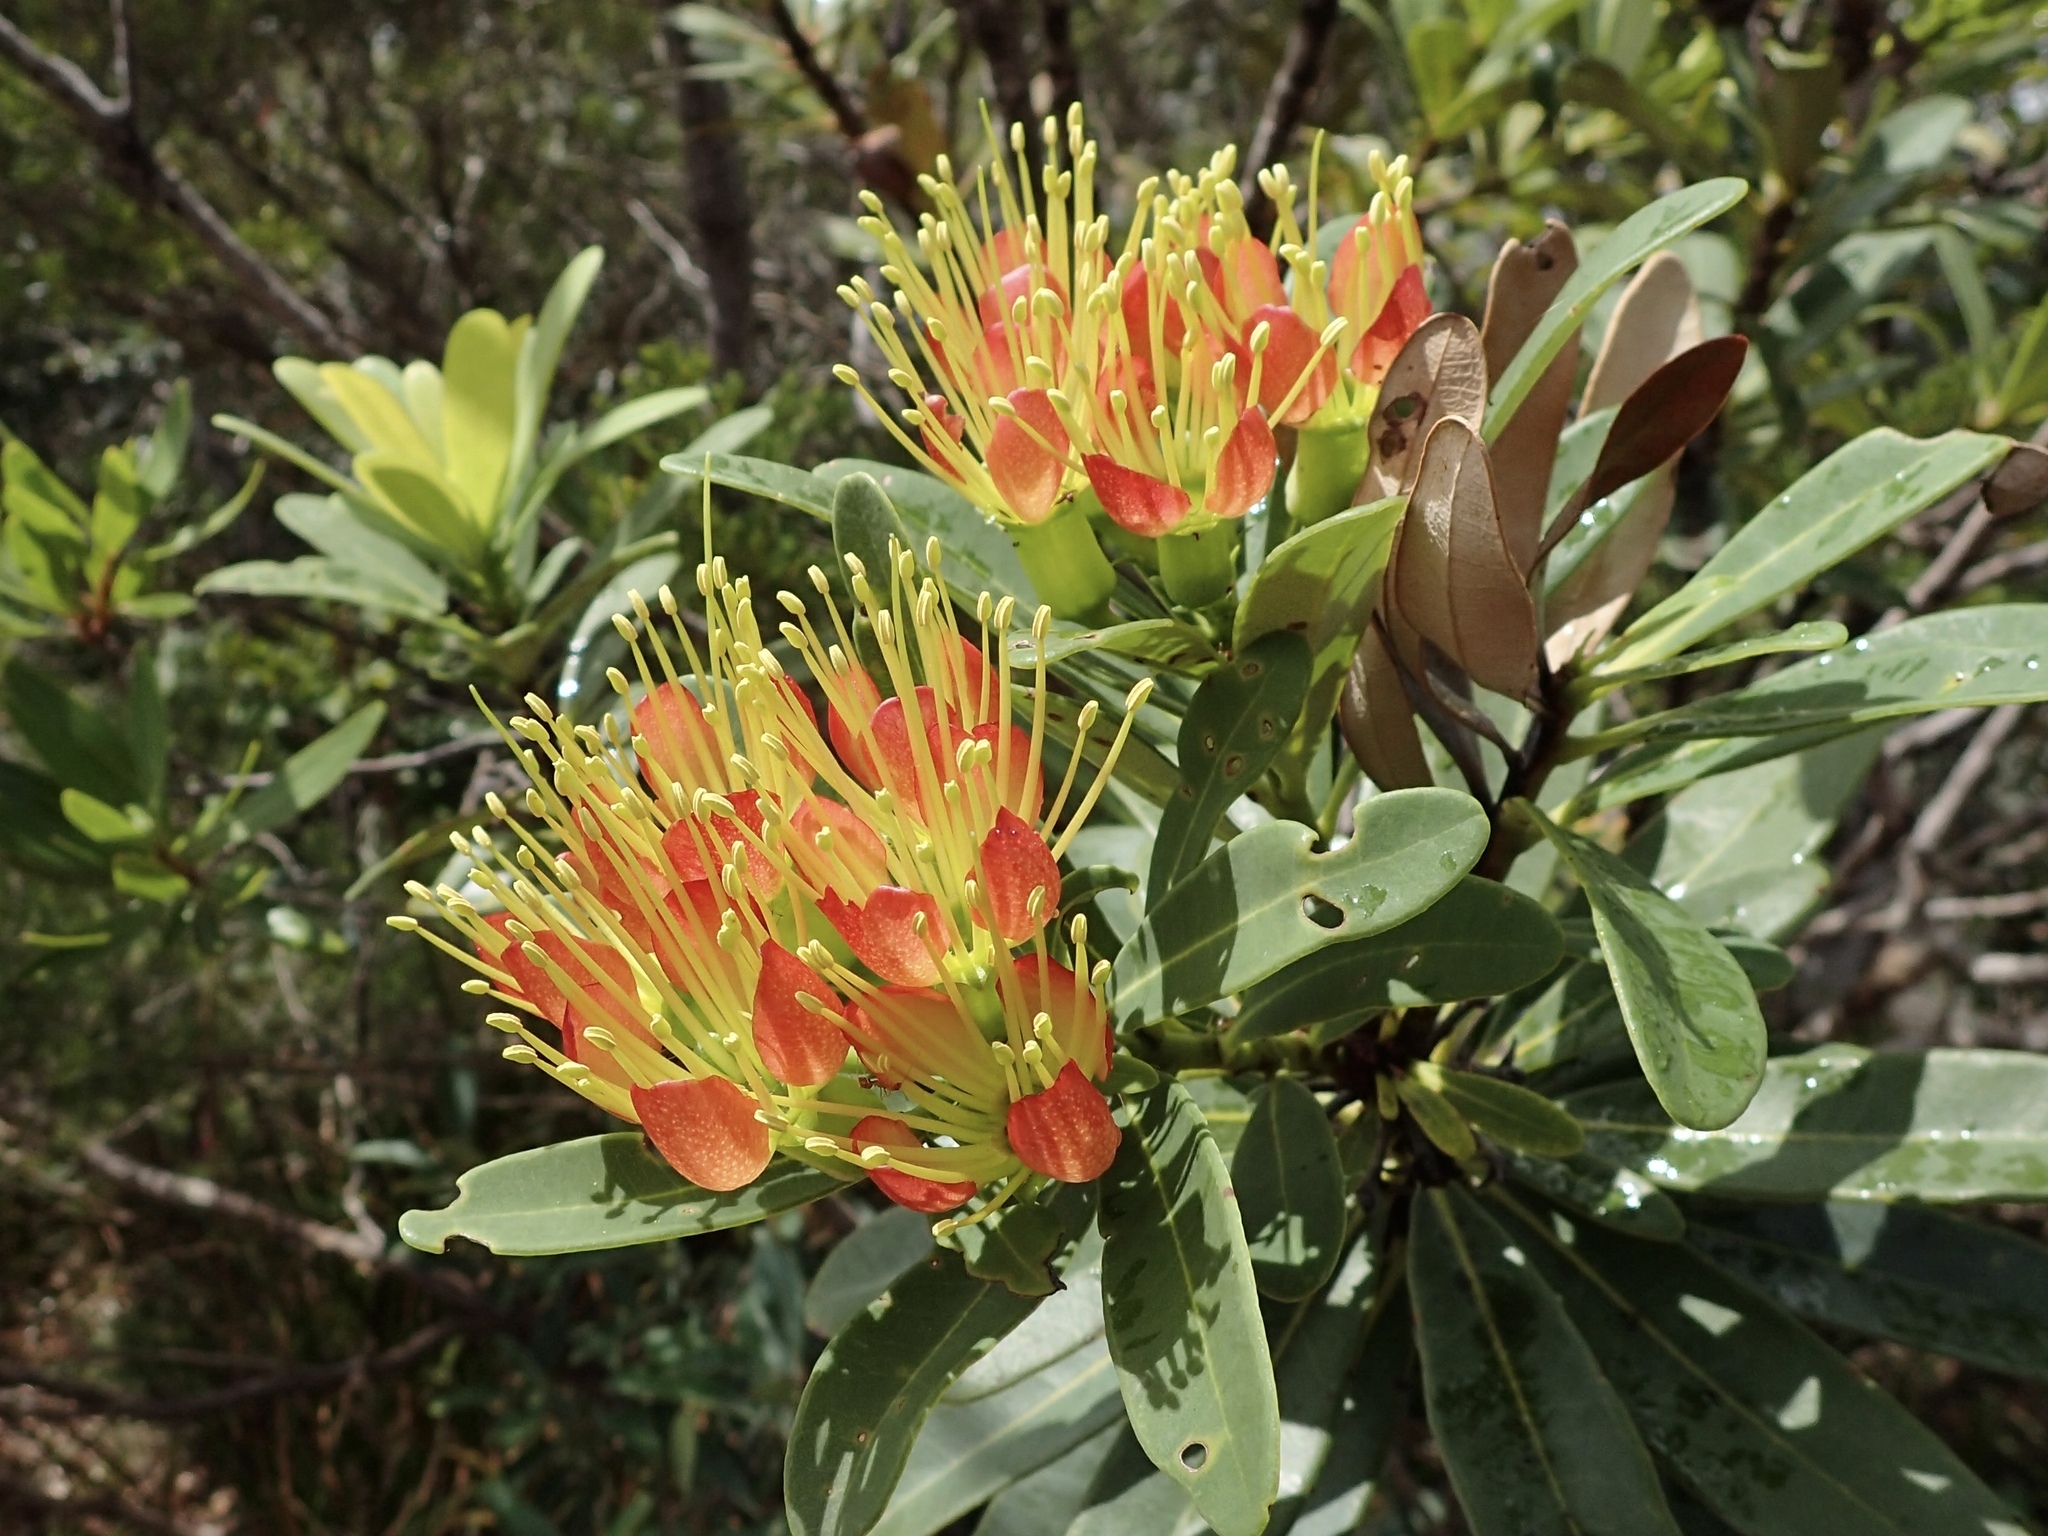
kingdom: Plantae
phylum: Tracheophyta
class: Magnoliopsida
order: Myrtales
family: Myrtaceae
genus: Xanthostemon
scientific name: Xanthostemon aurantiacus
